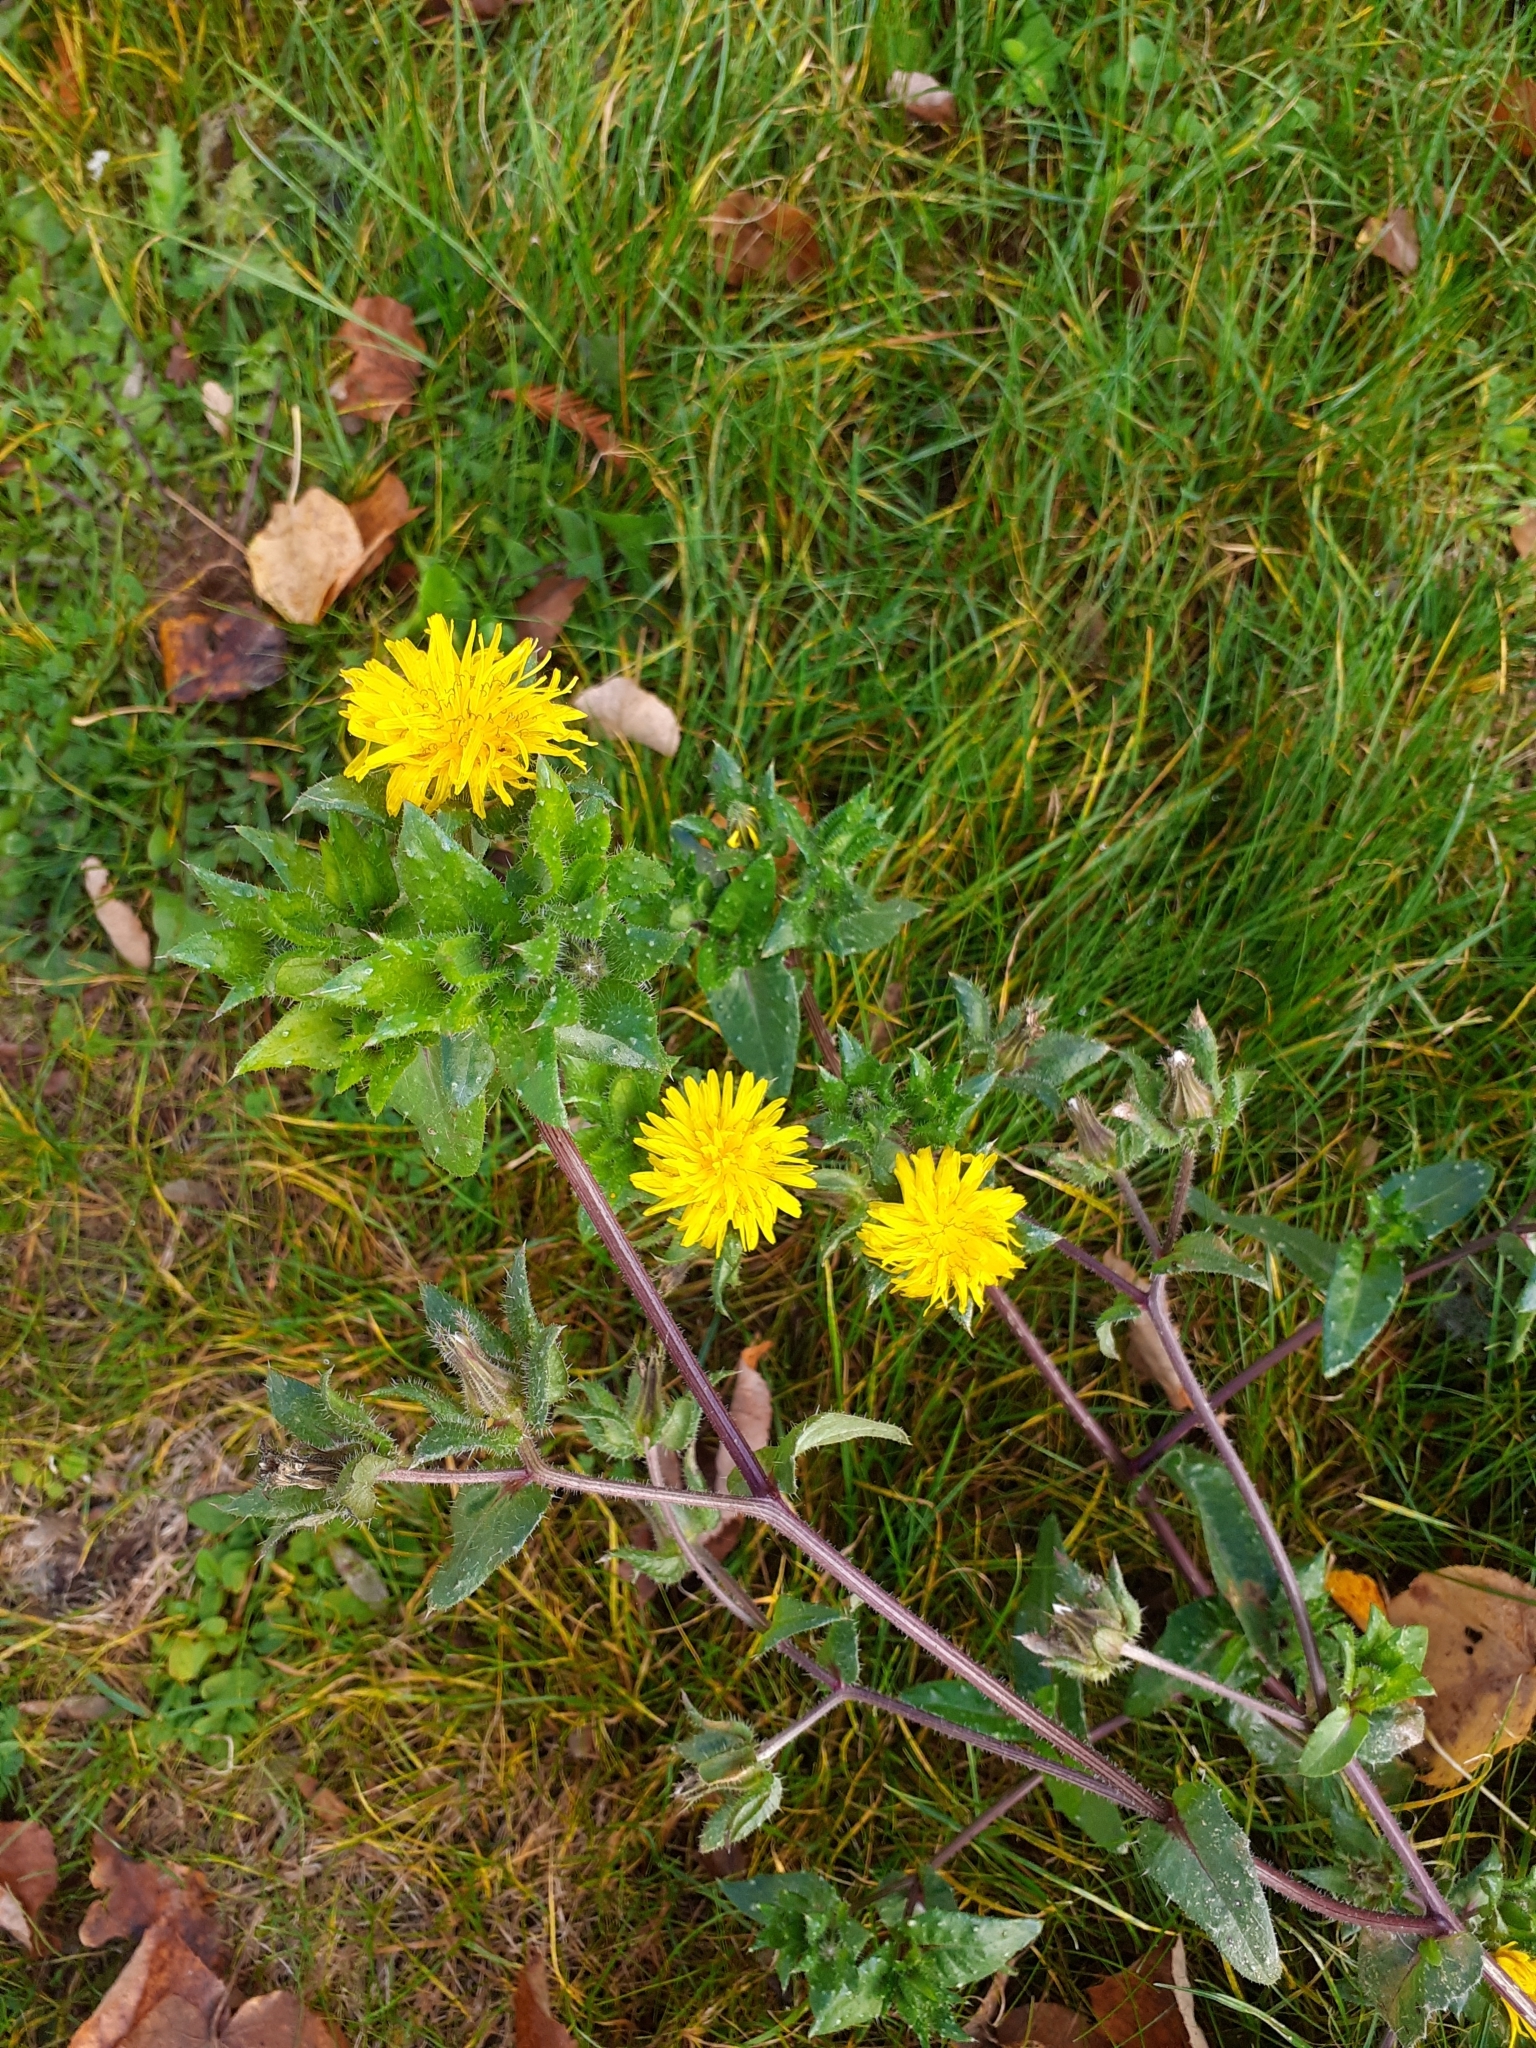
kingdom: Plantae
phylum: Tracheophyta
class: Magnoliopsida
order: Asterales
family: Asteraceae
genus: Helminthotheca
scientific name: Helminthotheca echioides
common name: Ox-tongue
